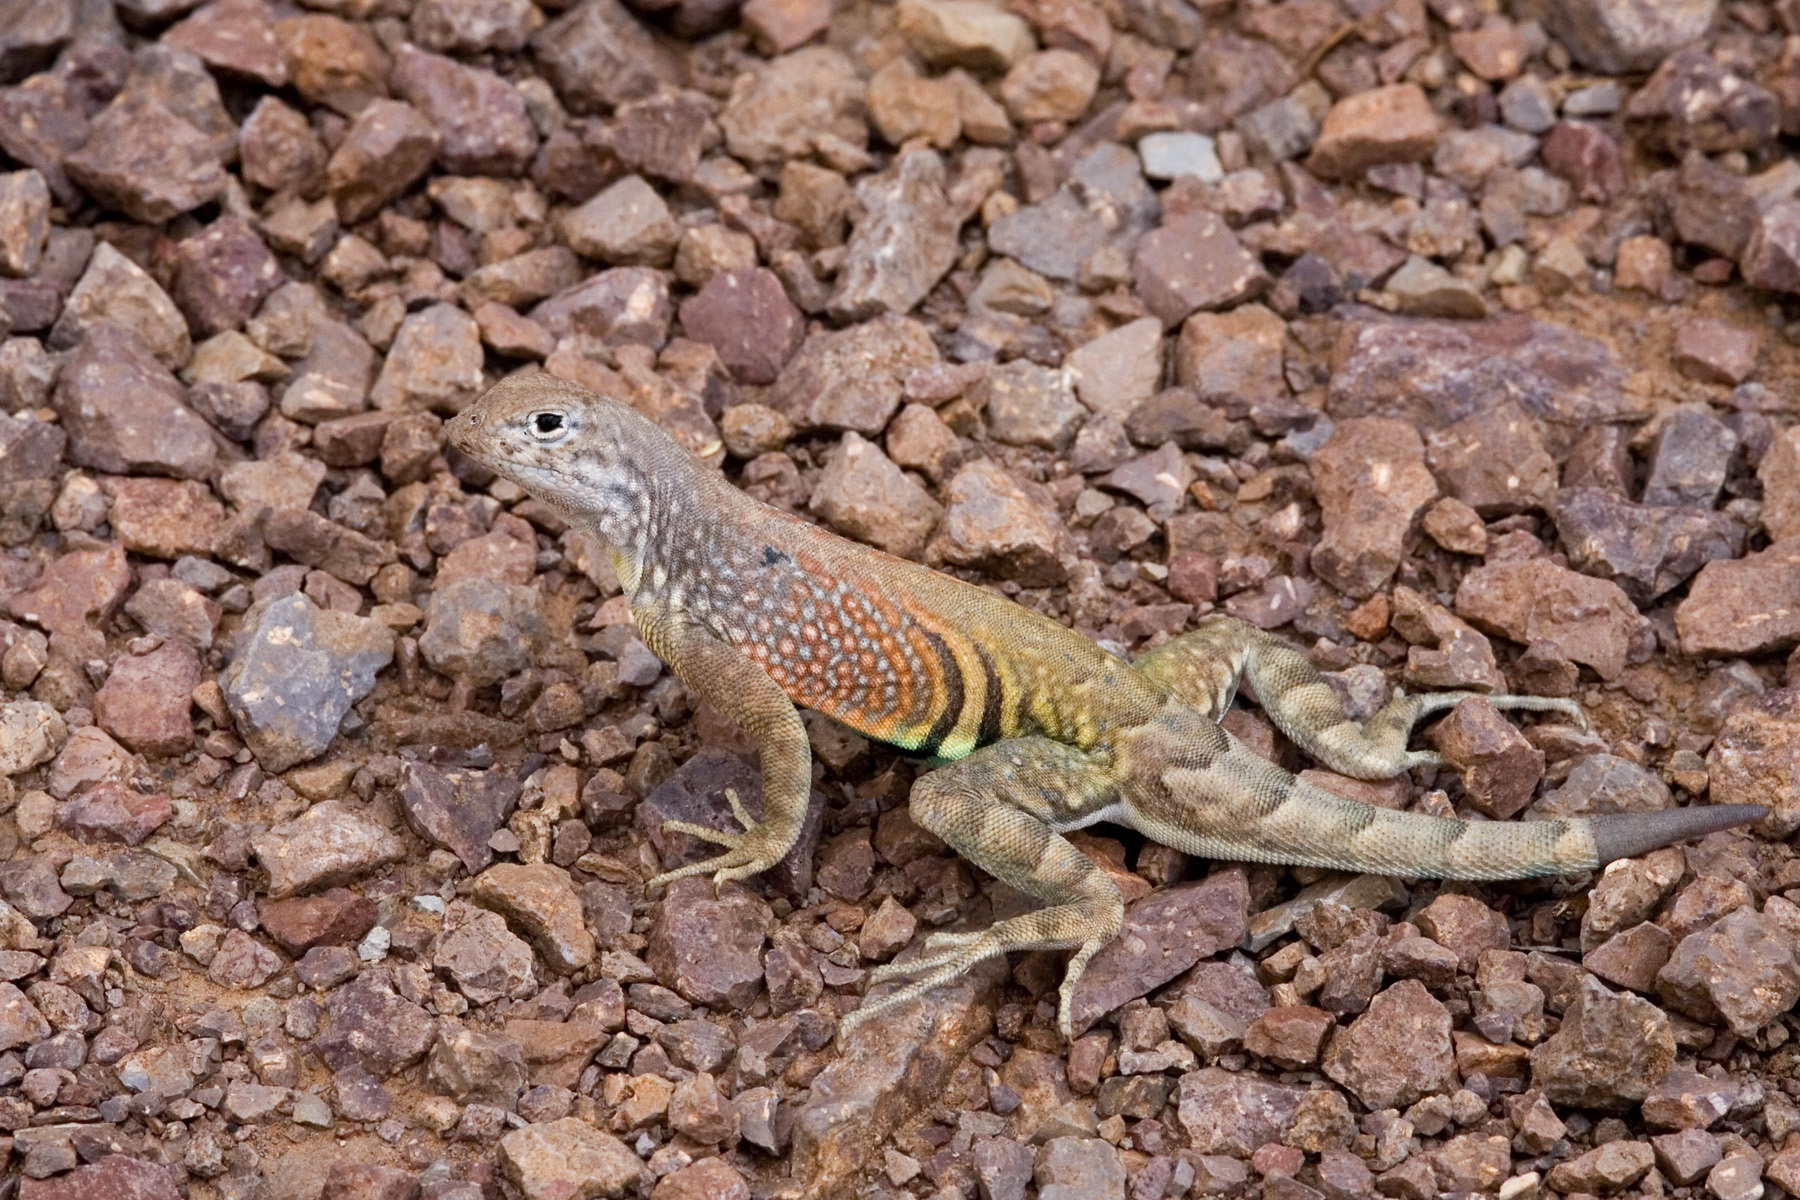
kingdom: Animalia
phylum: Chordata
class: Squamata
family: Phrynosomatidae
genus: Cophosaurus
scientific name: Cophosaurus texanus
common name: Greater earless lizard
